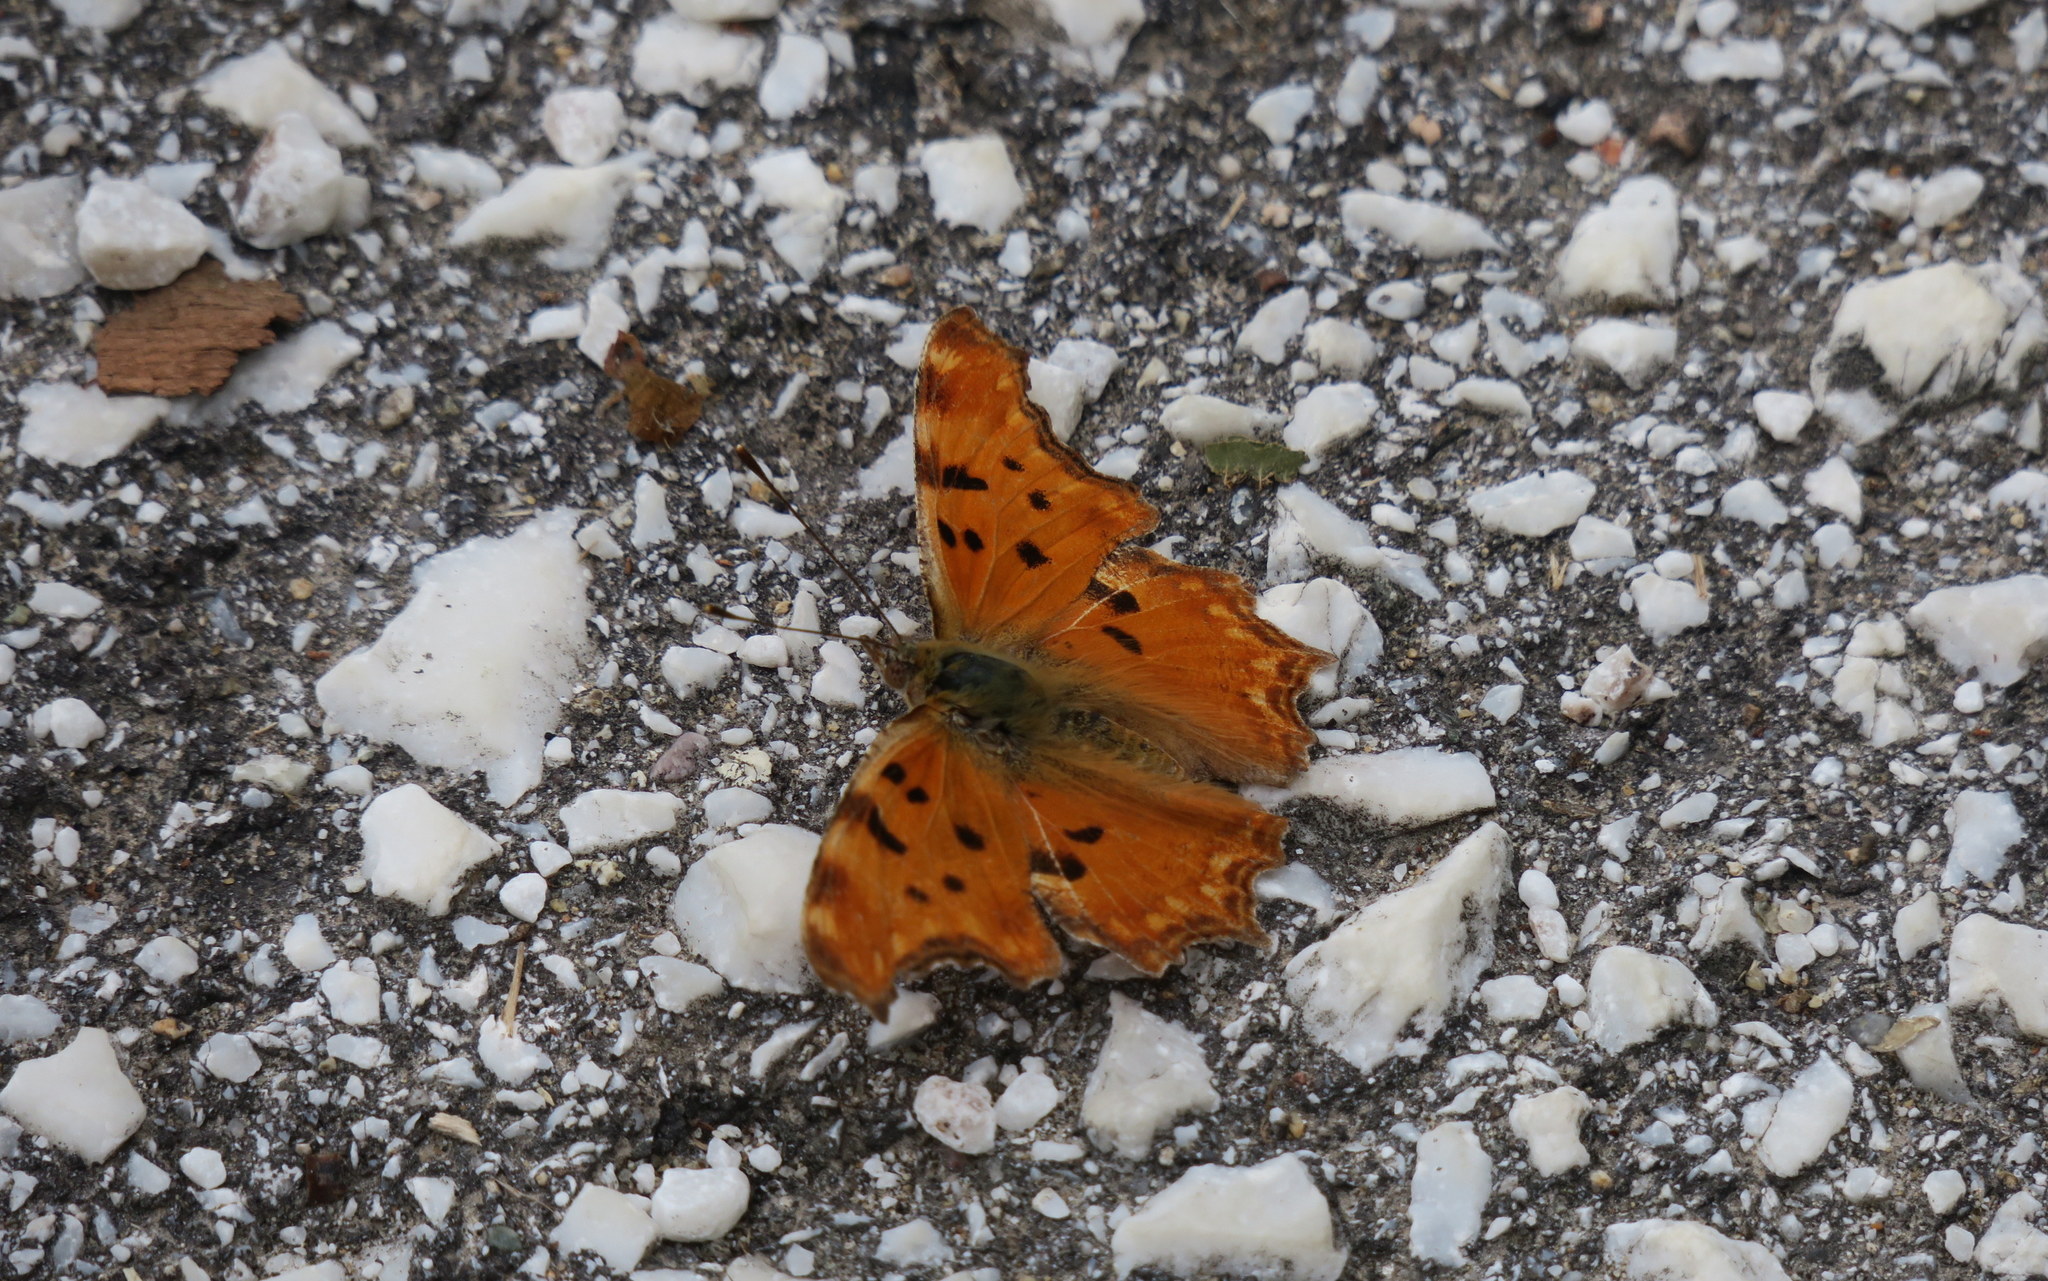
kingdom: Animalia
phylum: Arthropoda
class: Insecta
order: Lepidoptera
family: Nymphalidae
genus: Polygonia
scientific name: Polygonia egea
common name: Southern comma
